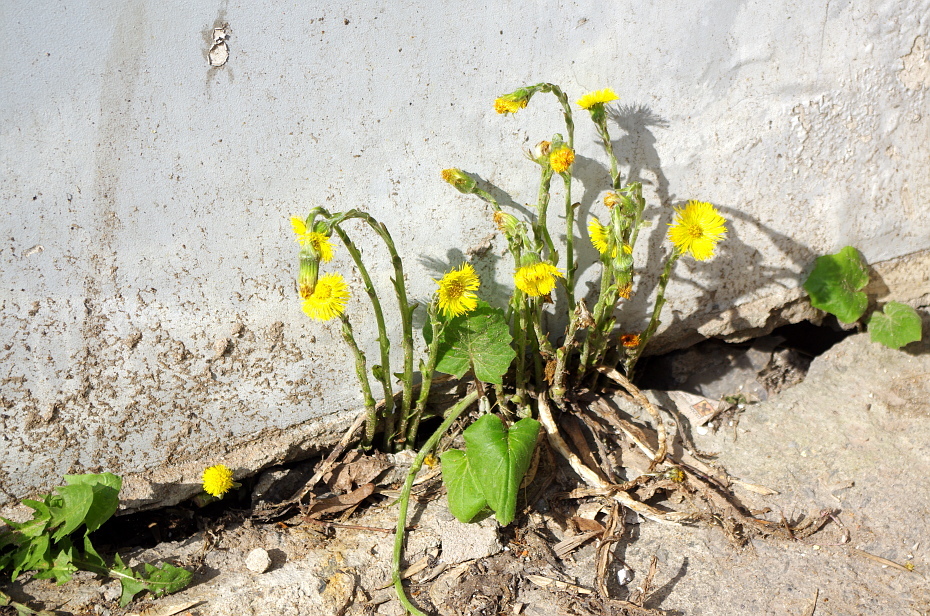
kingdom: Plantae
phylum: Tracheophyta
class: Magnoliopsida
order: Asterales
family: Asteraceae
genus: Tussilago
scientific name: Tussilago farfara
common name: Coltsfoot
